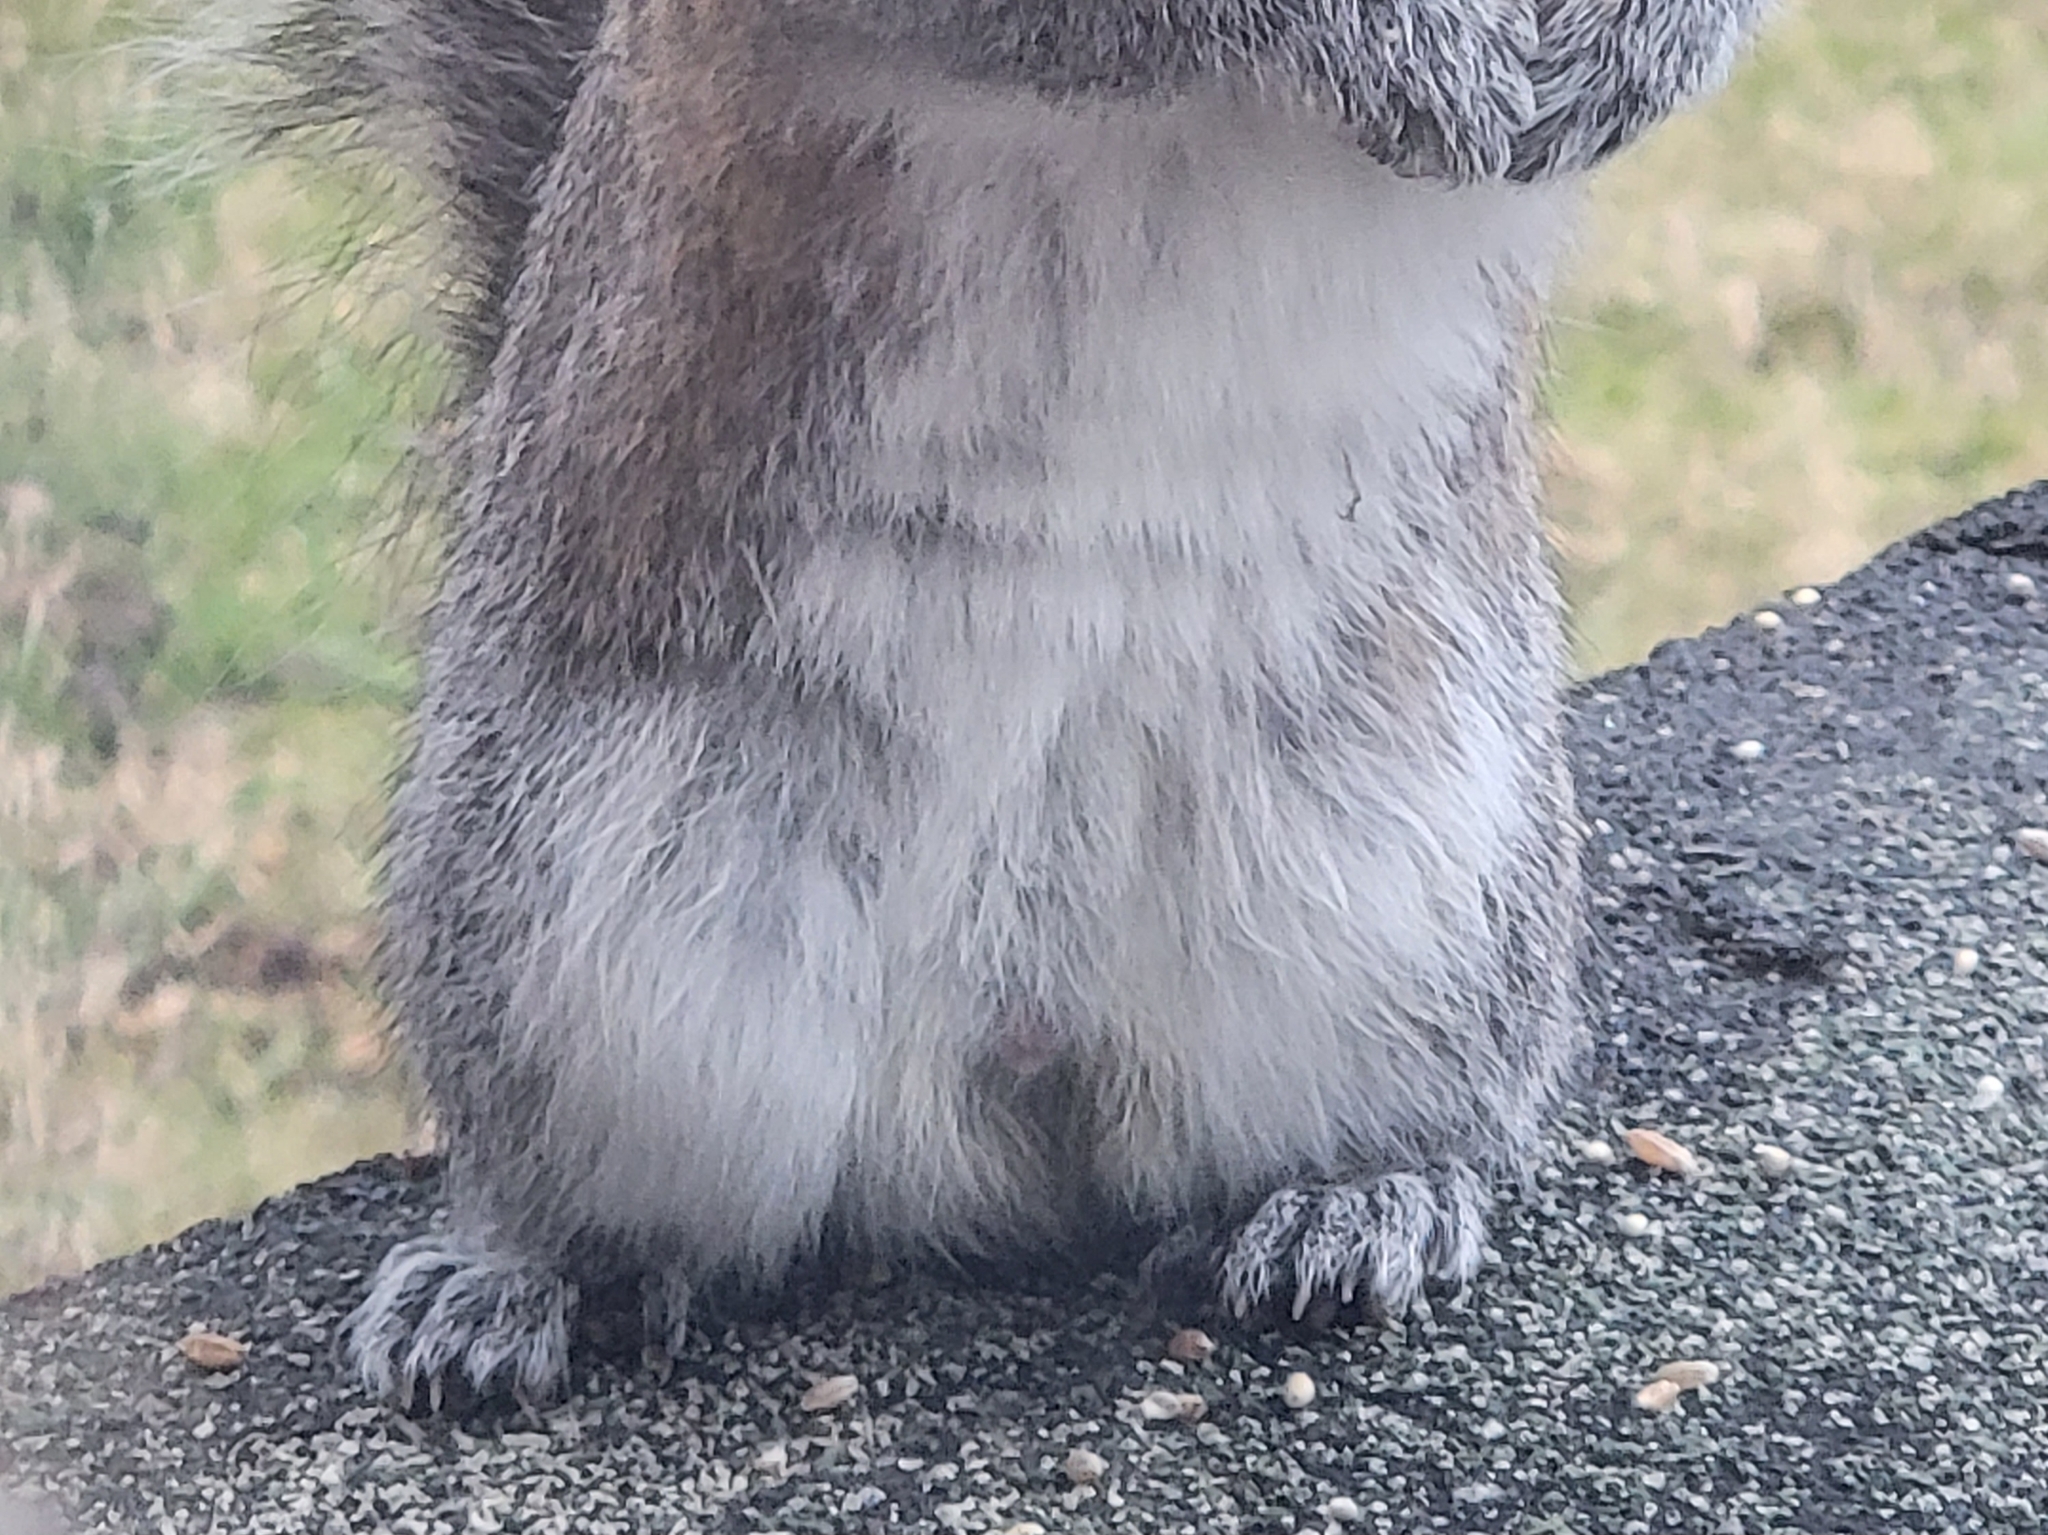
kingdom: Animalia
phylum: Chordata
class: Mammalia
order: Rodentia
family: Sciuridae
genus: Sciurus
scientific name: Sciurus carolinensis
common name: Eastern gray squirrel
